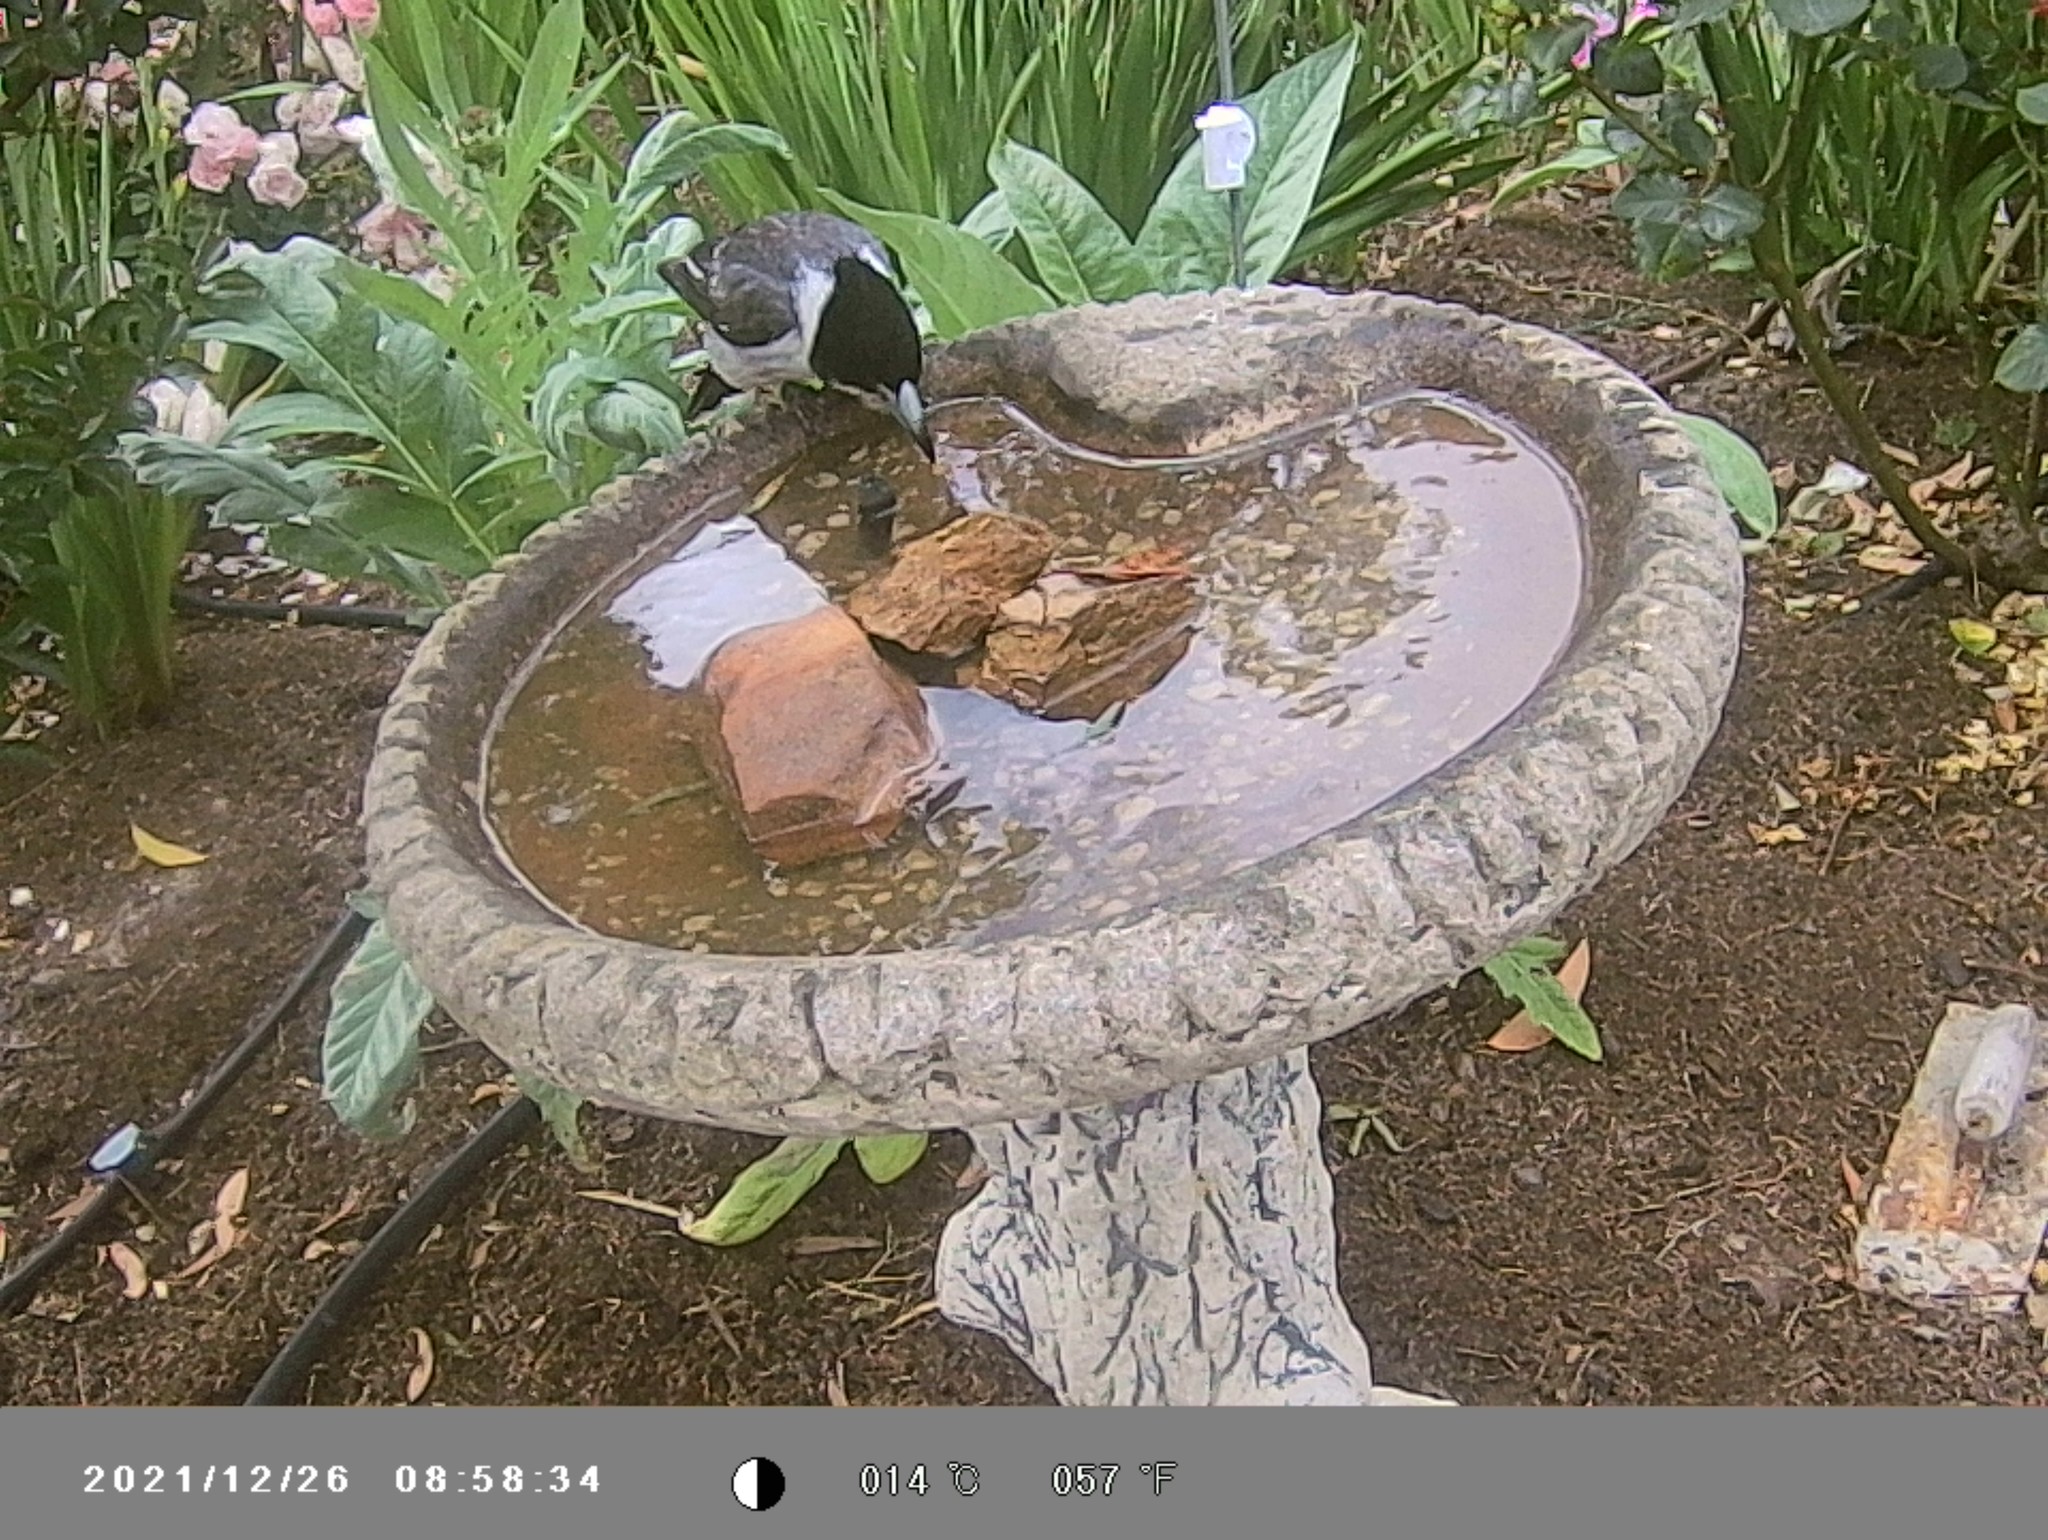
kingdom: Animalia
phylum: Chordata
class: Aves
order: Passeriformes
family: Cracticidae
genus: Cracticus
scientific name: Cracticus torquatus
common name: Grey butcherbird
